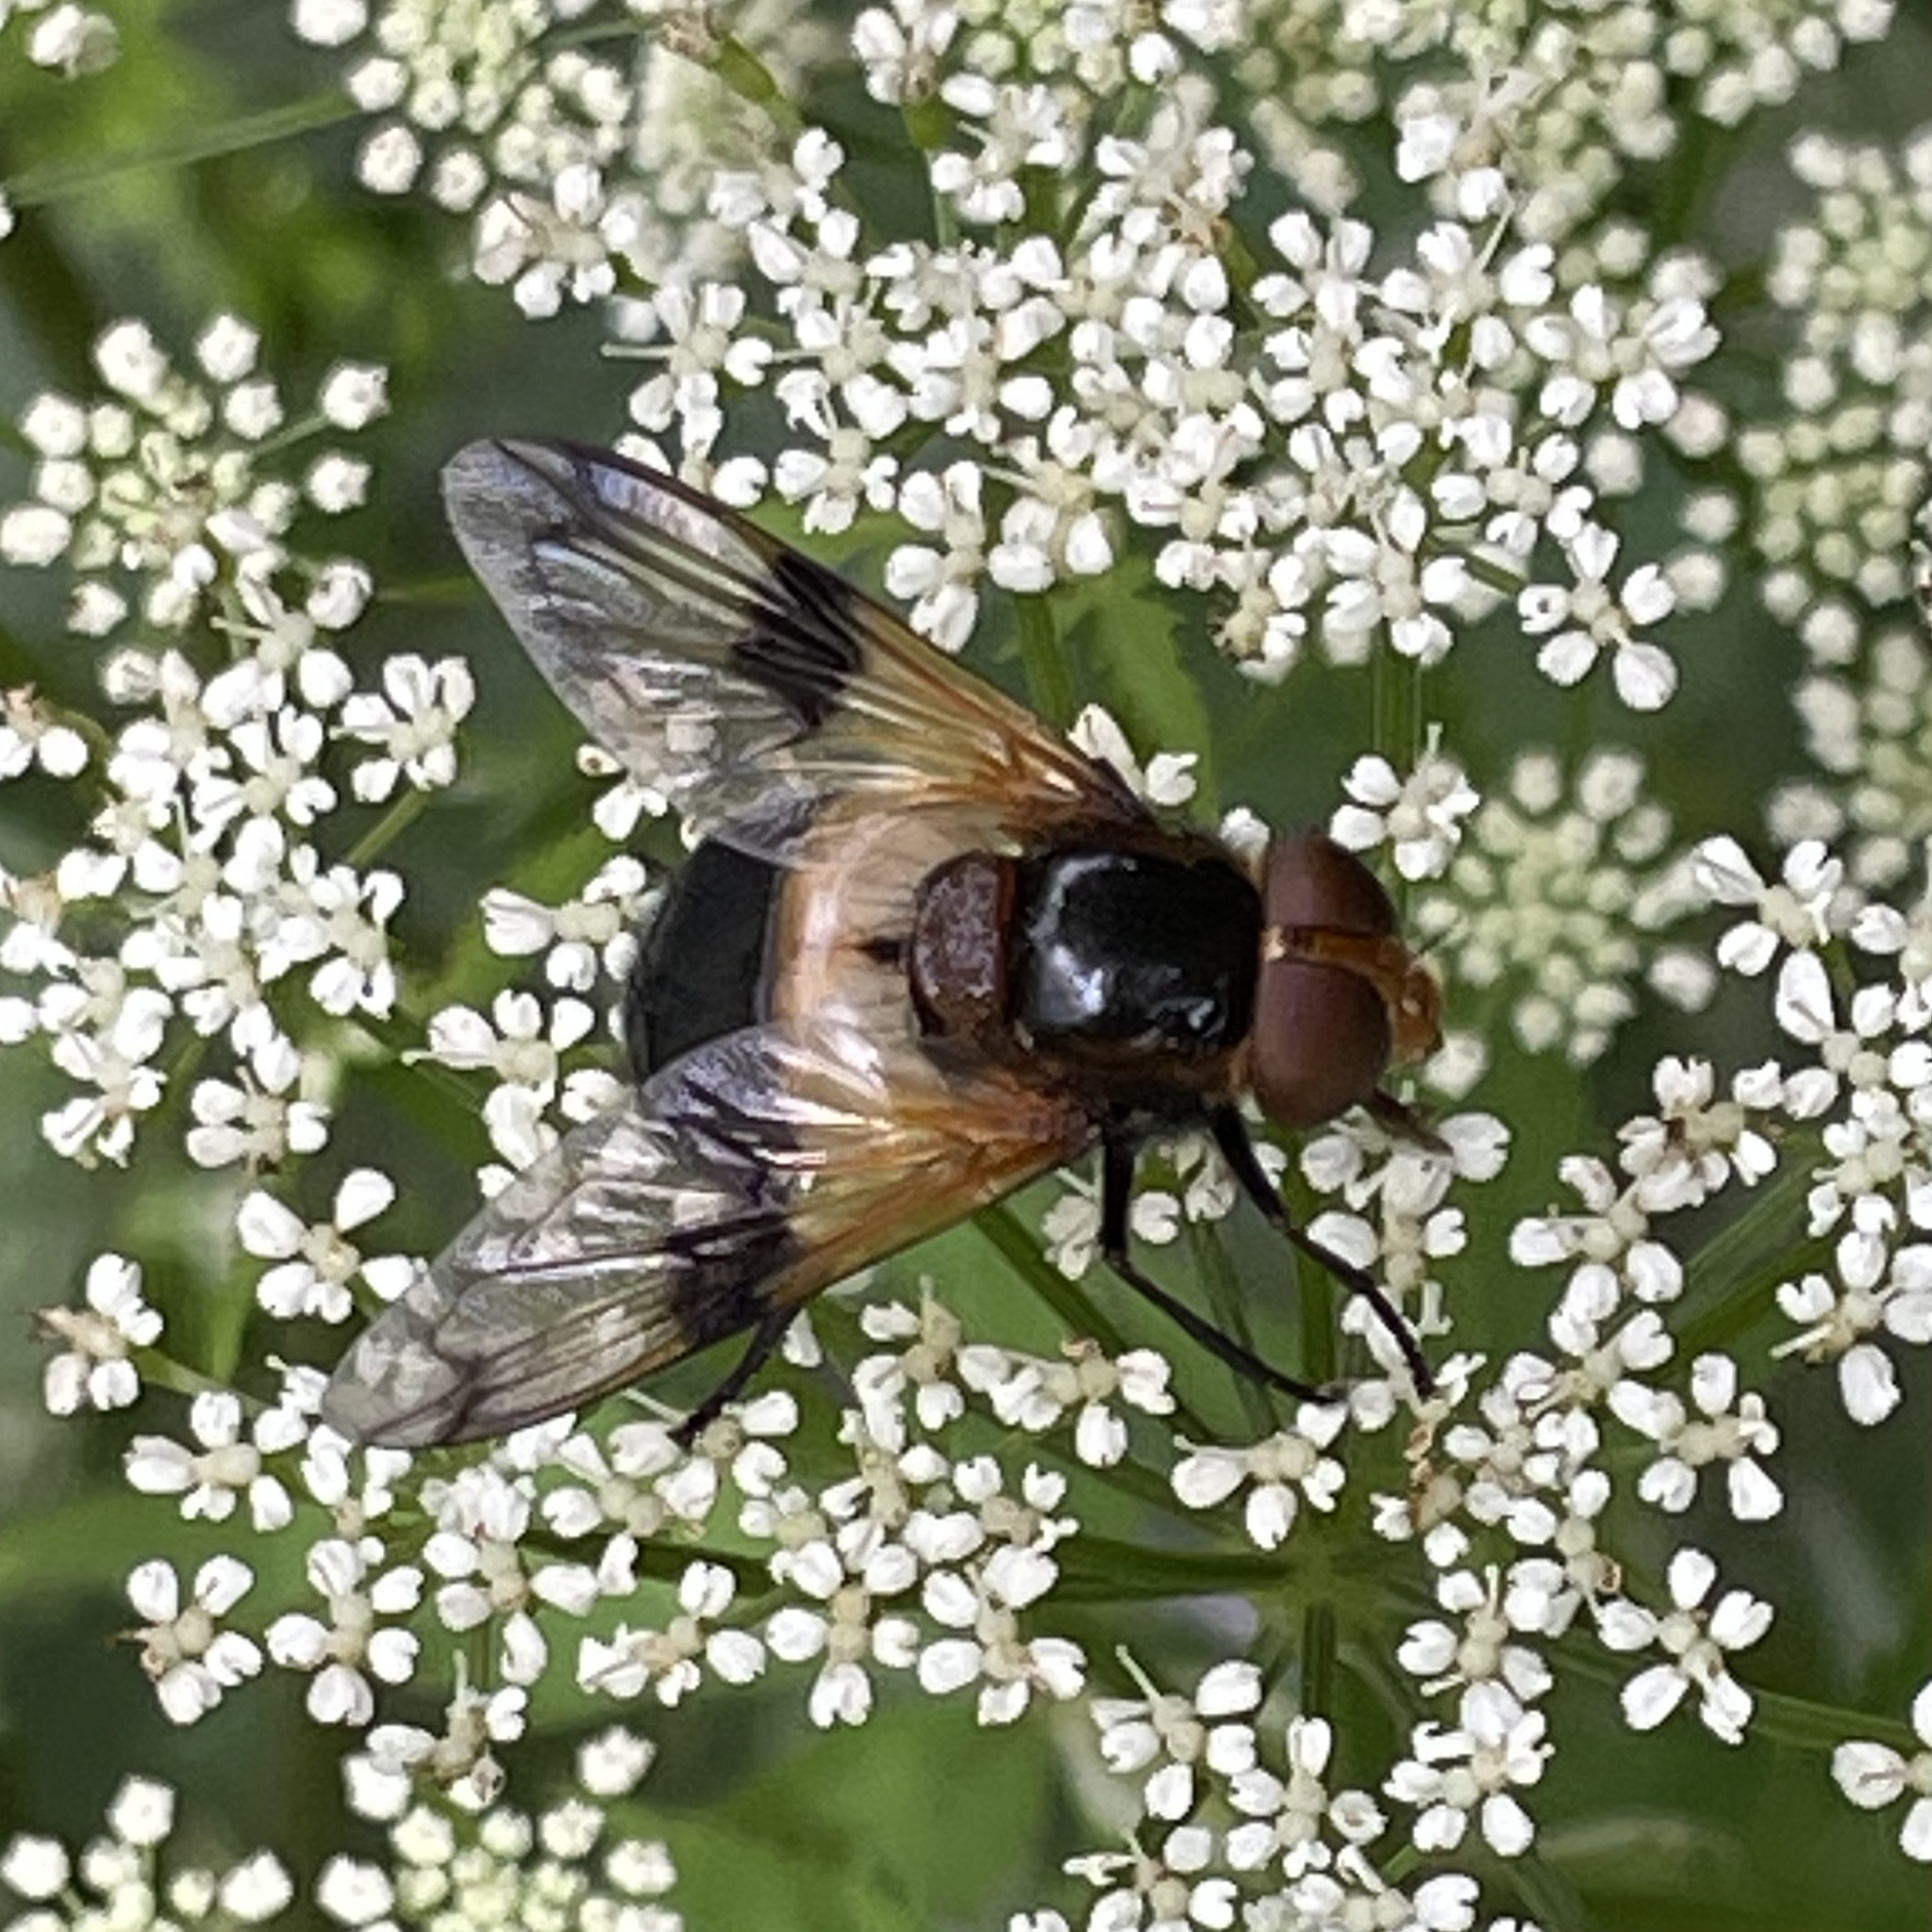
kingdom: Animalia
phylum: Arthropoda
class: Insecta
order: Diptera
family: Syrphidae
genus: Volucella
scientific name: Volucella pellucens
